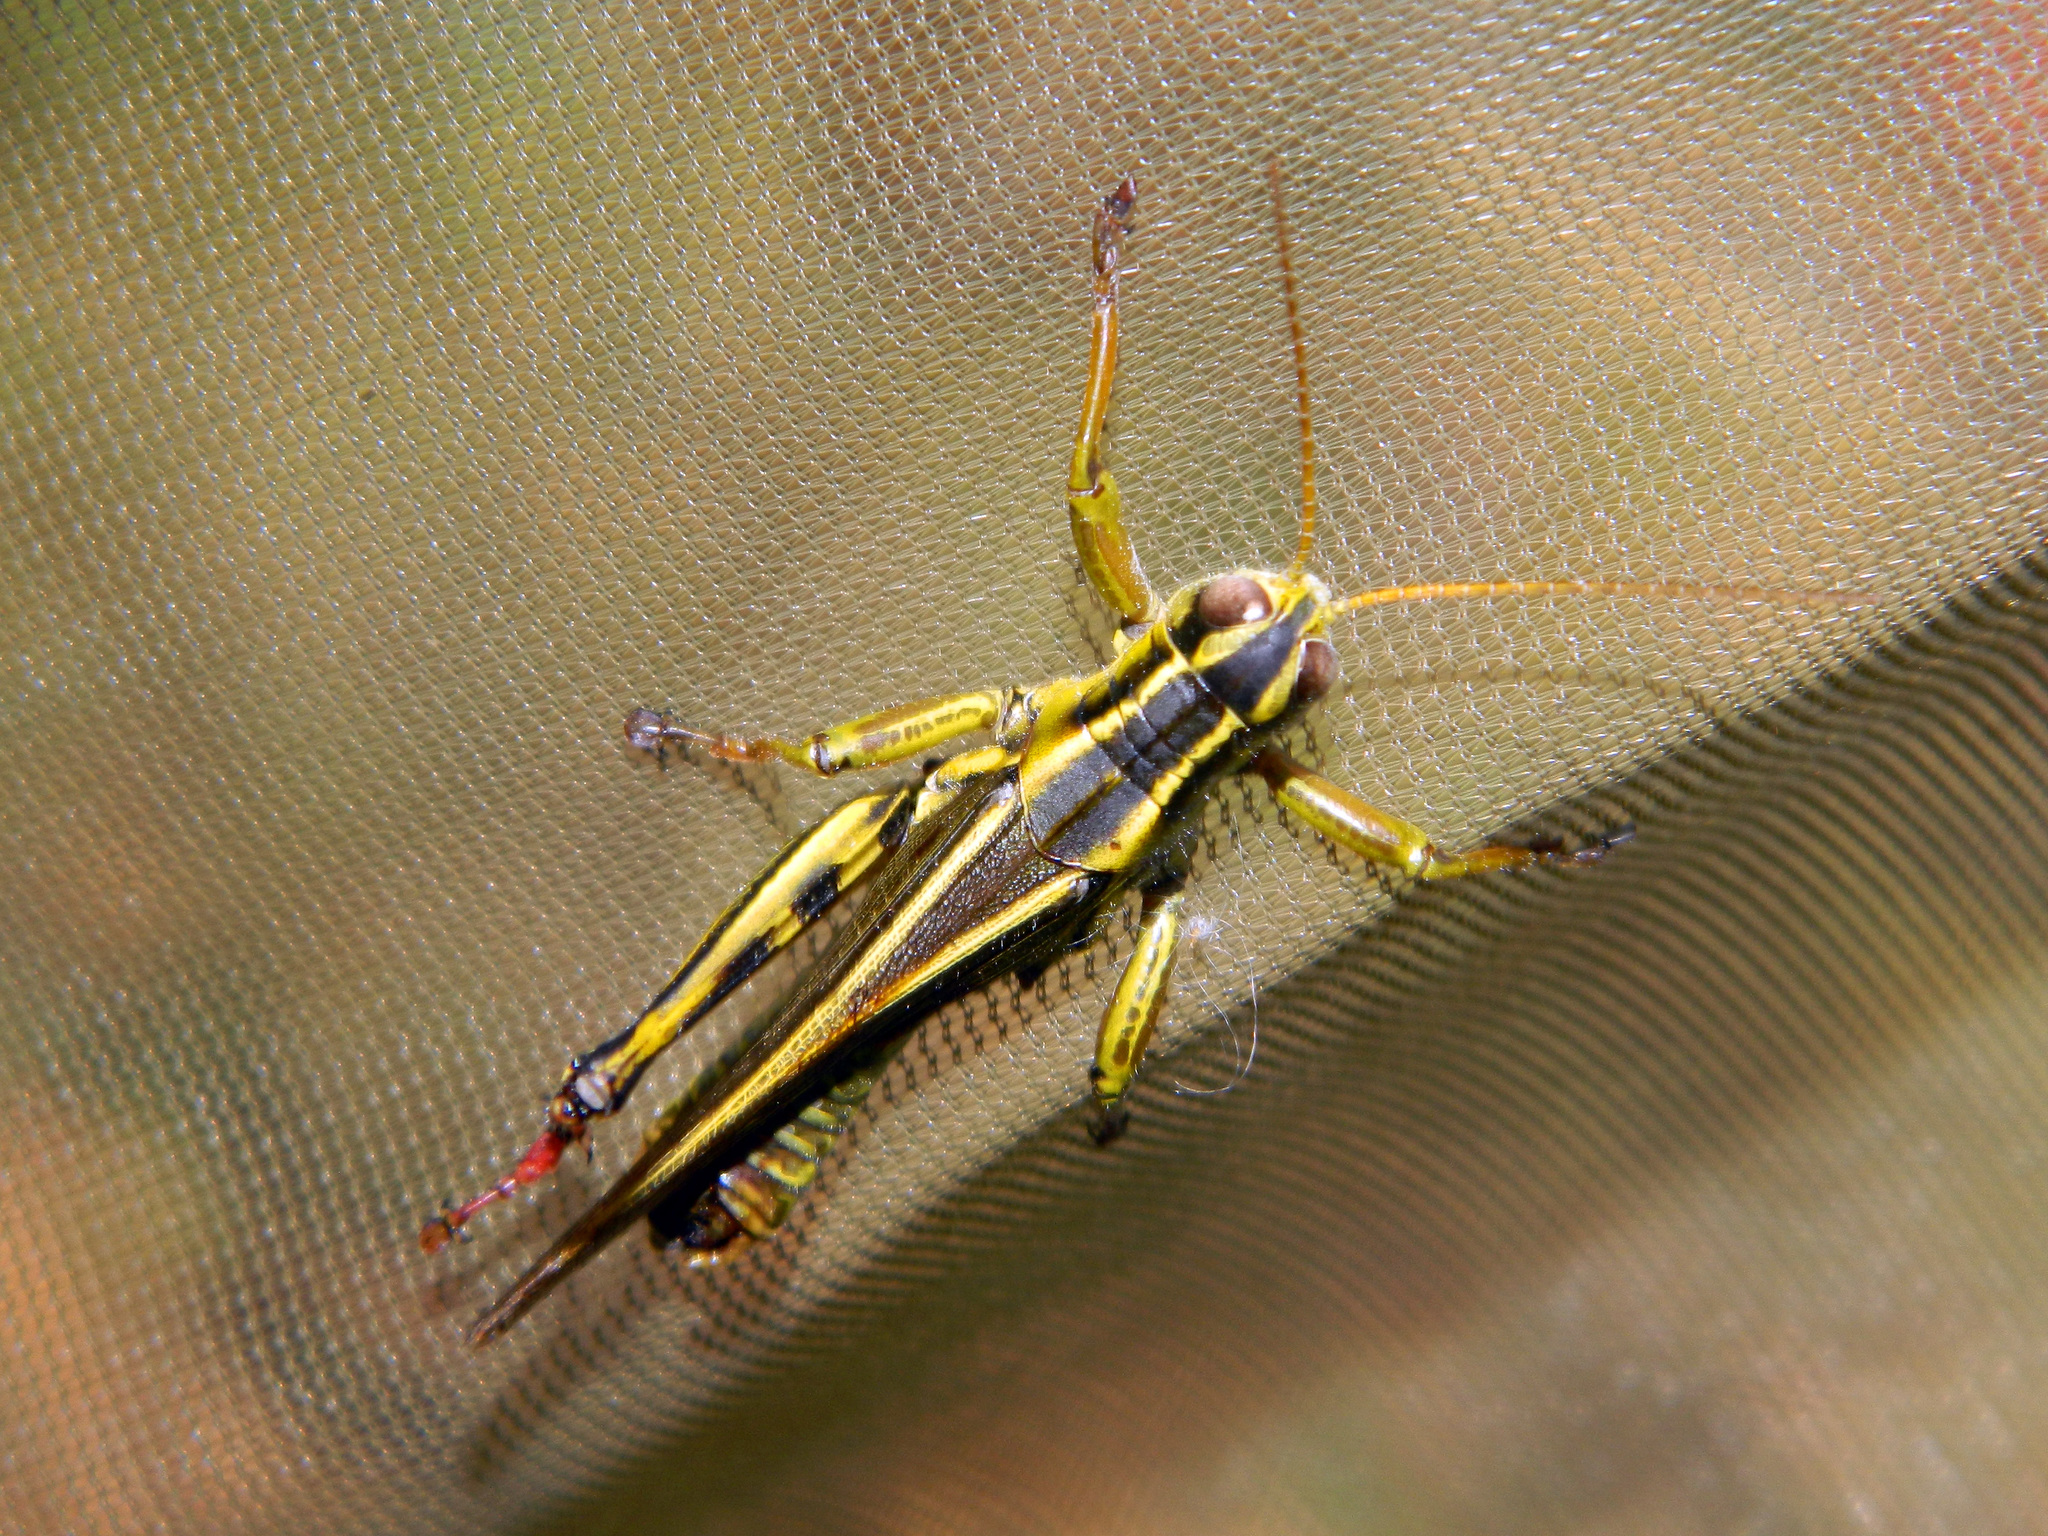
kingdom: Animalia
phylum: Arthropoda
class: Insecta
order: Orthoptera
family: Acrididae
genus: Melanoplus
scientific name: Melanoplus bivittatus
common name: Two-striped grasshopper
